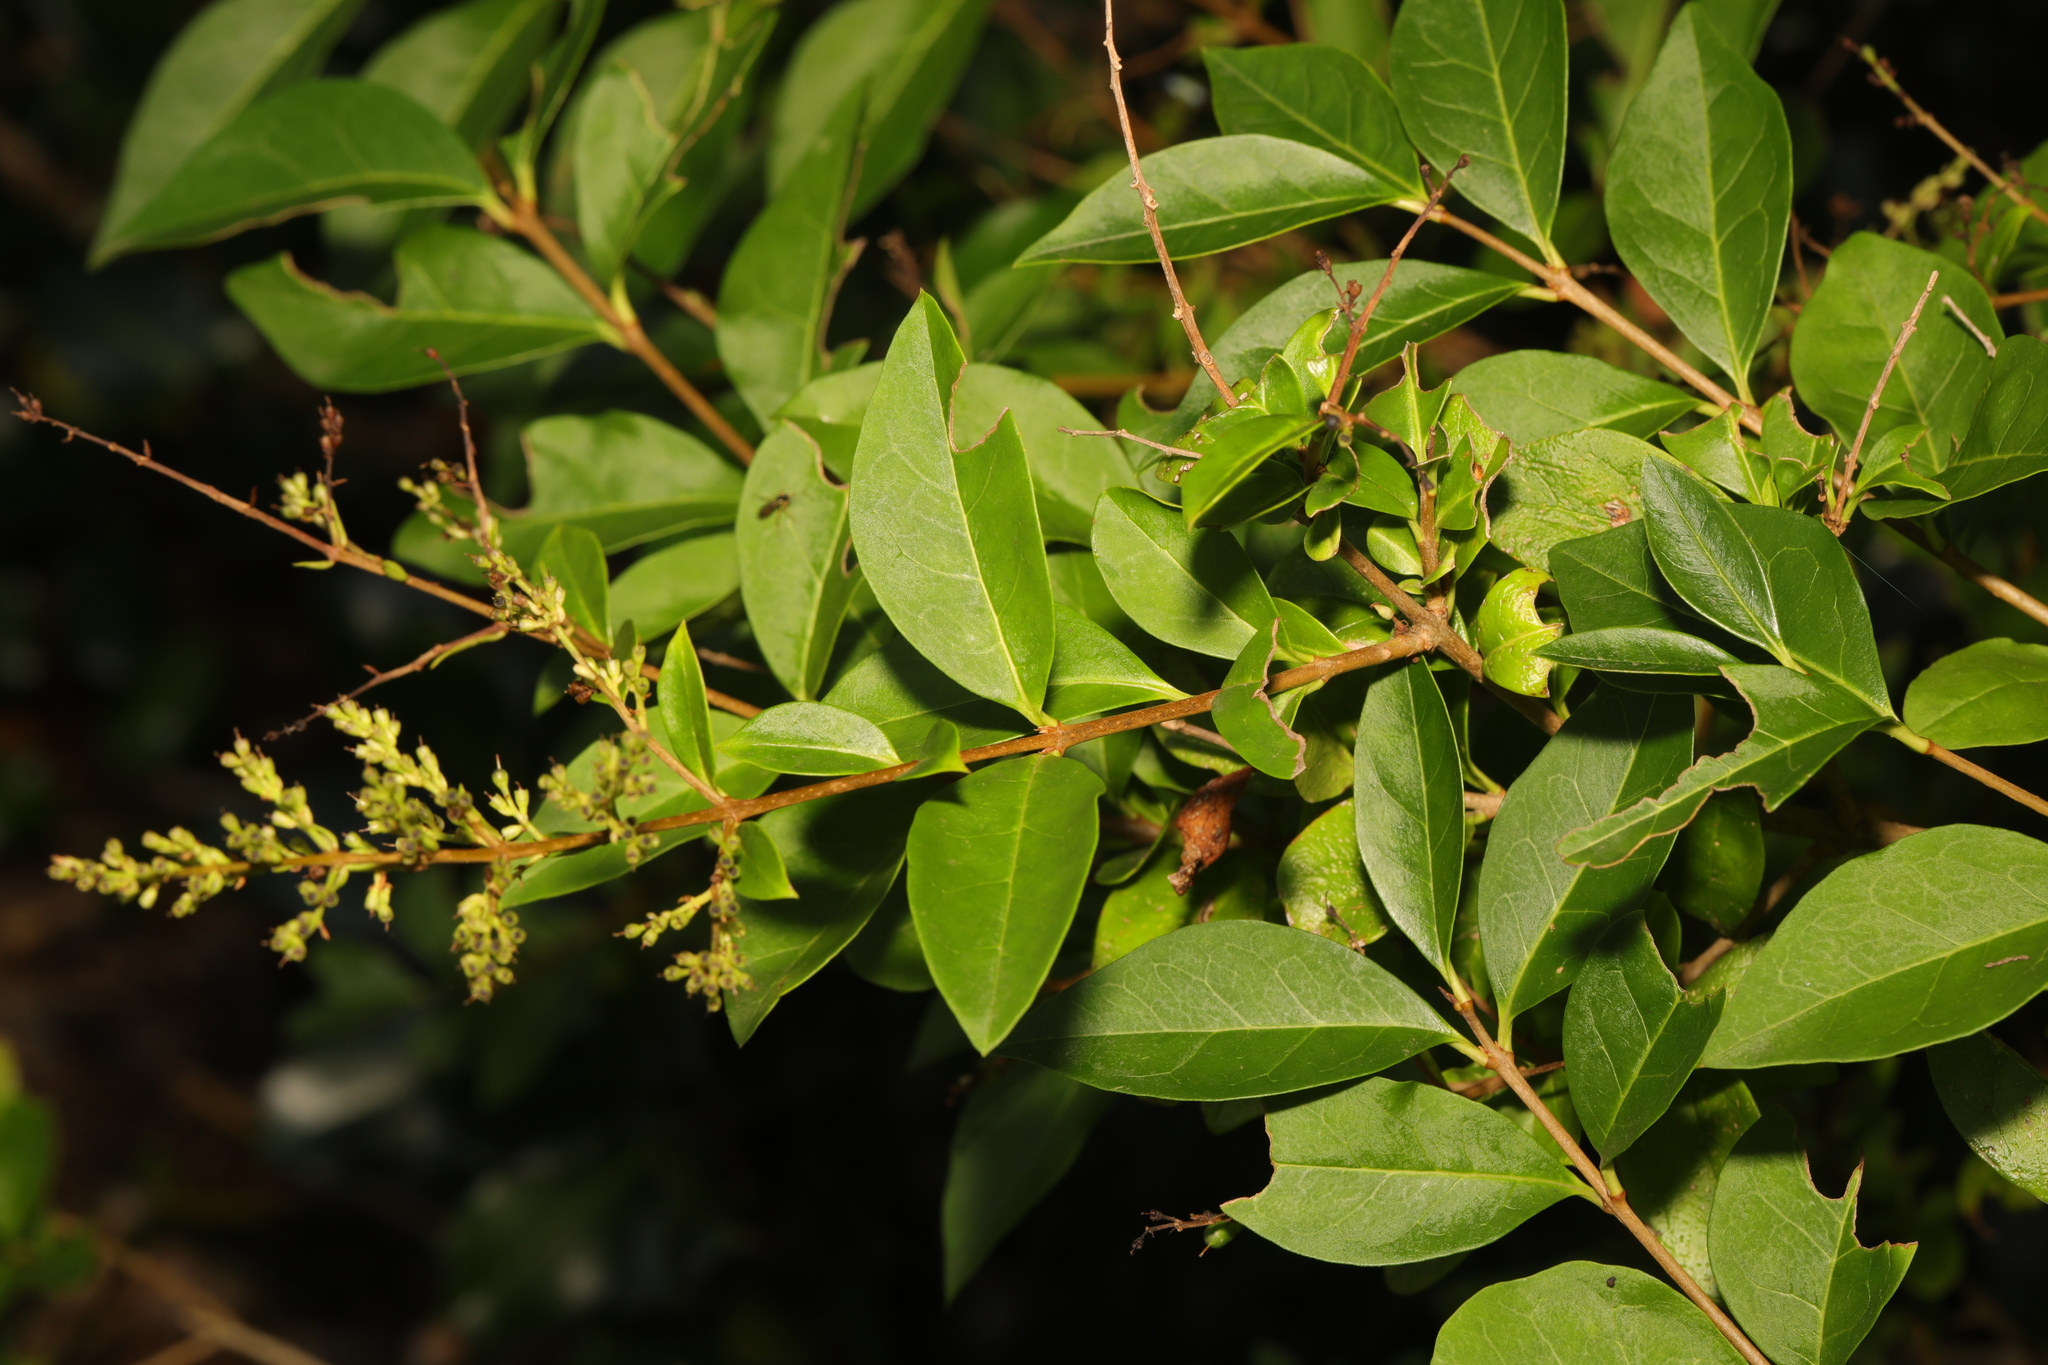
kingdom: Plantae
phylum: Tracheophyta
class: Magnoliopsida
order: Lamiales
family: Oleaceae
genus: Ligustrum
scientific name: Ligustrum ovalifolium
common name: California privet
